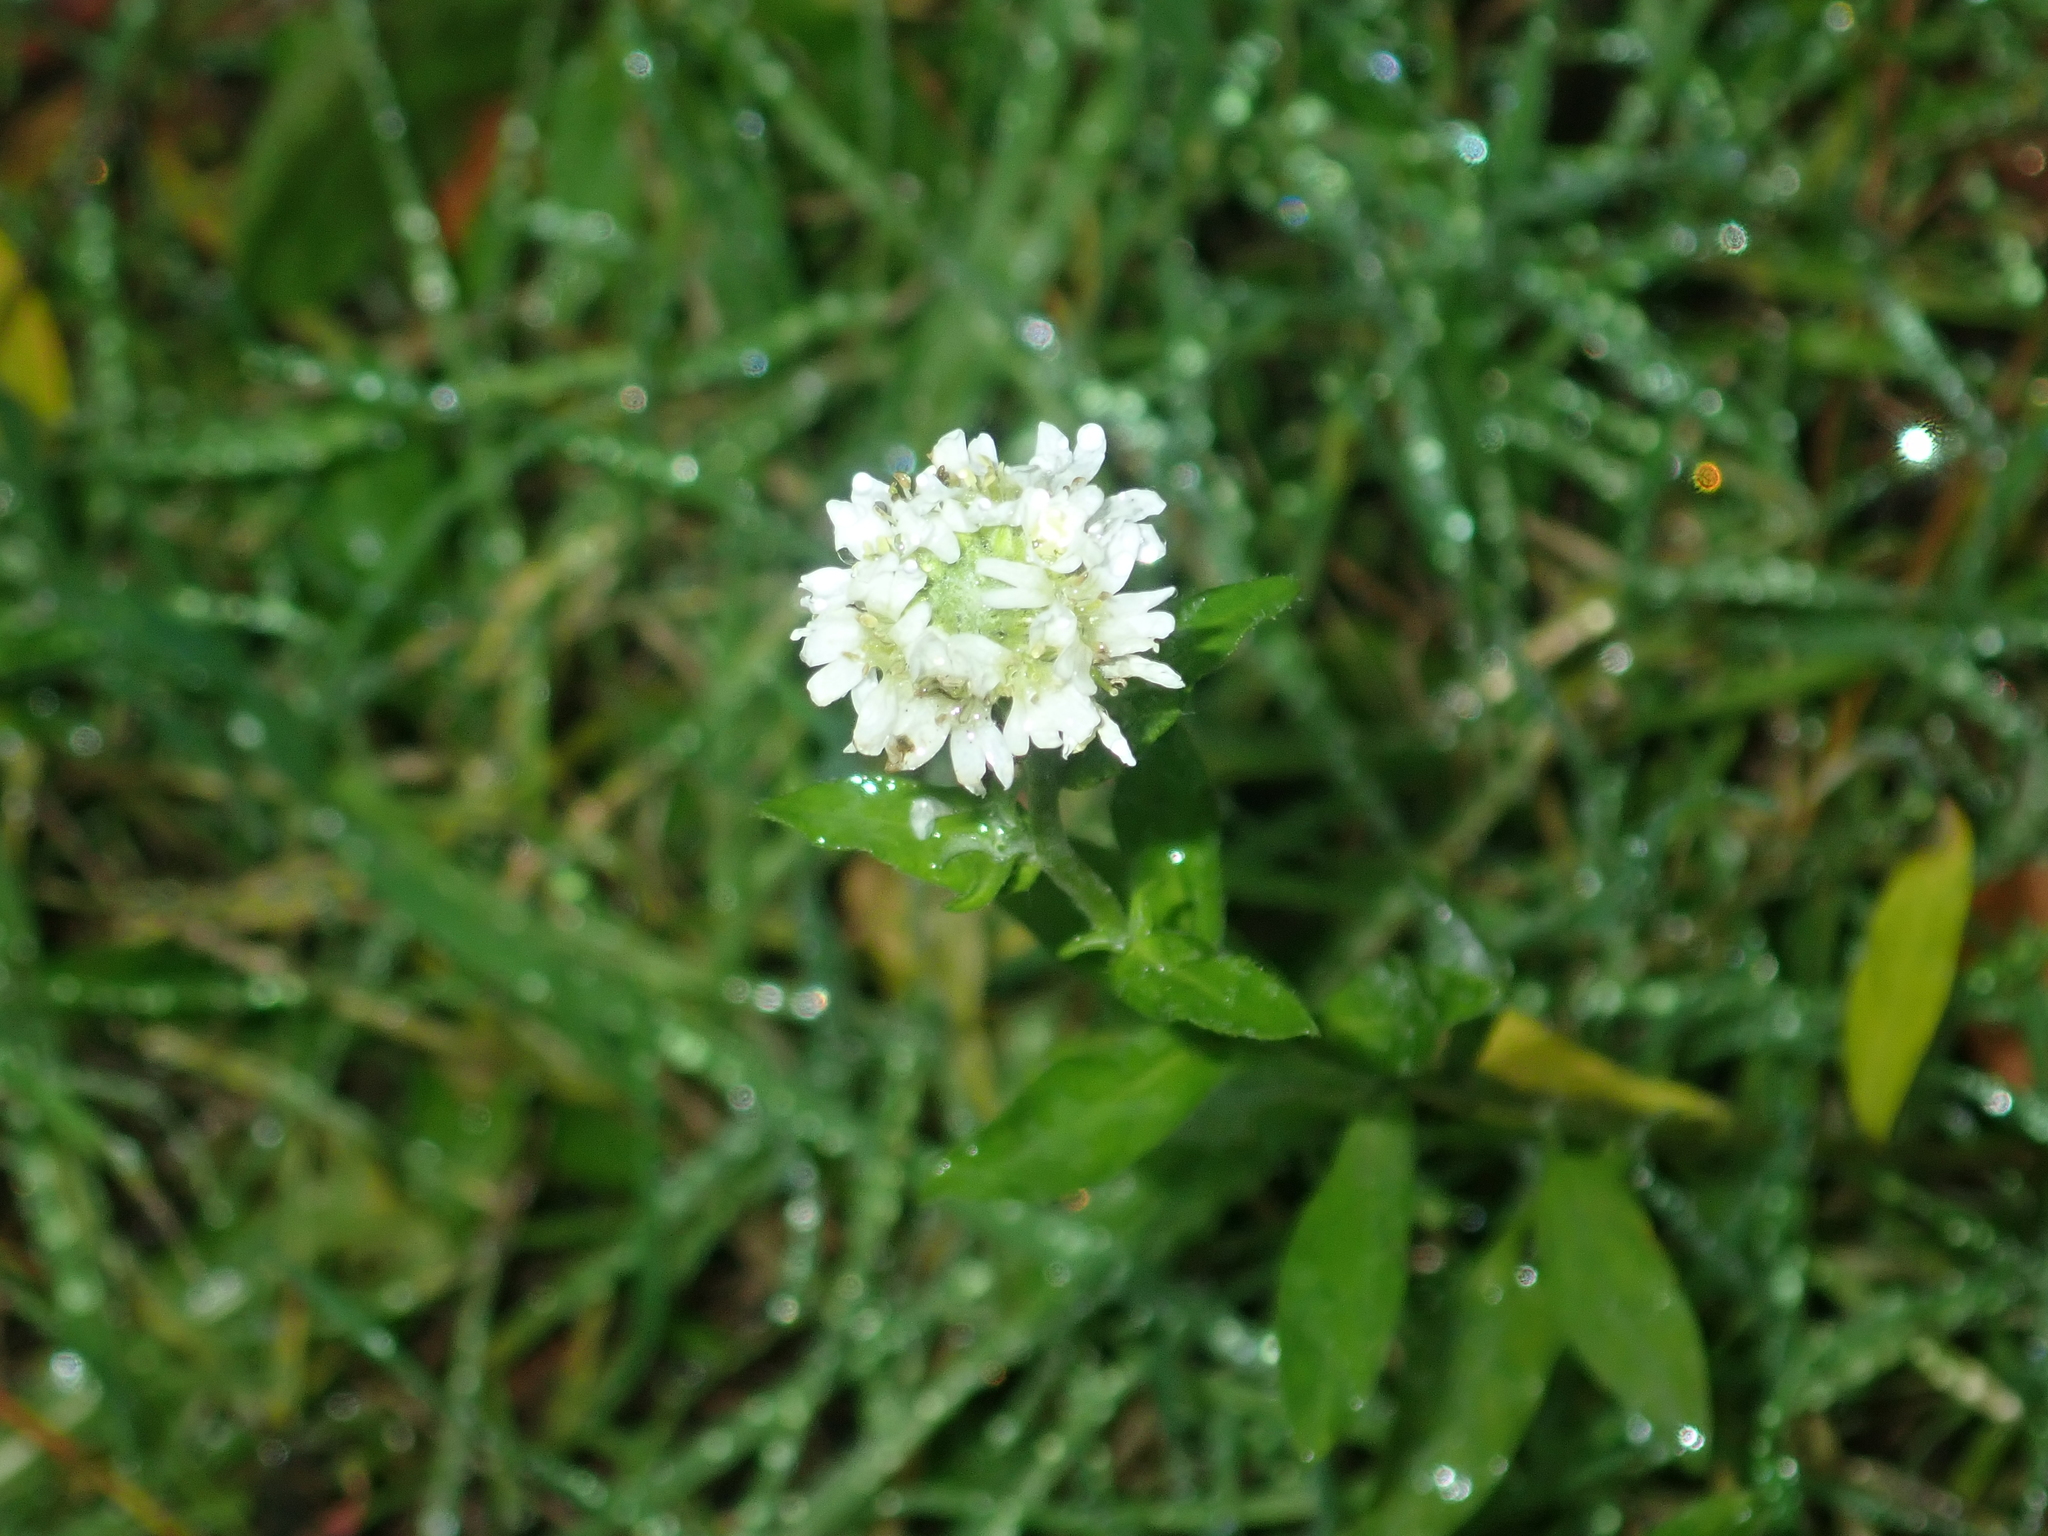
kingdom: Plantae
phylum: Tracheophyta
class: Magnoliopsida
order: Brassicales
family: Brassicaceae
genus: Berteroa
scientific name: Berteroa incana
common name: Hoary alison
